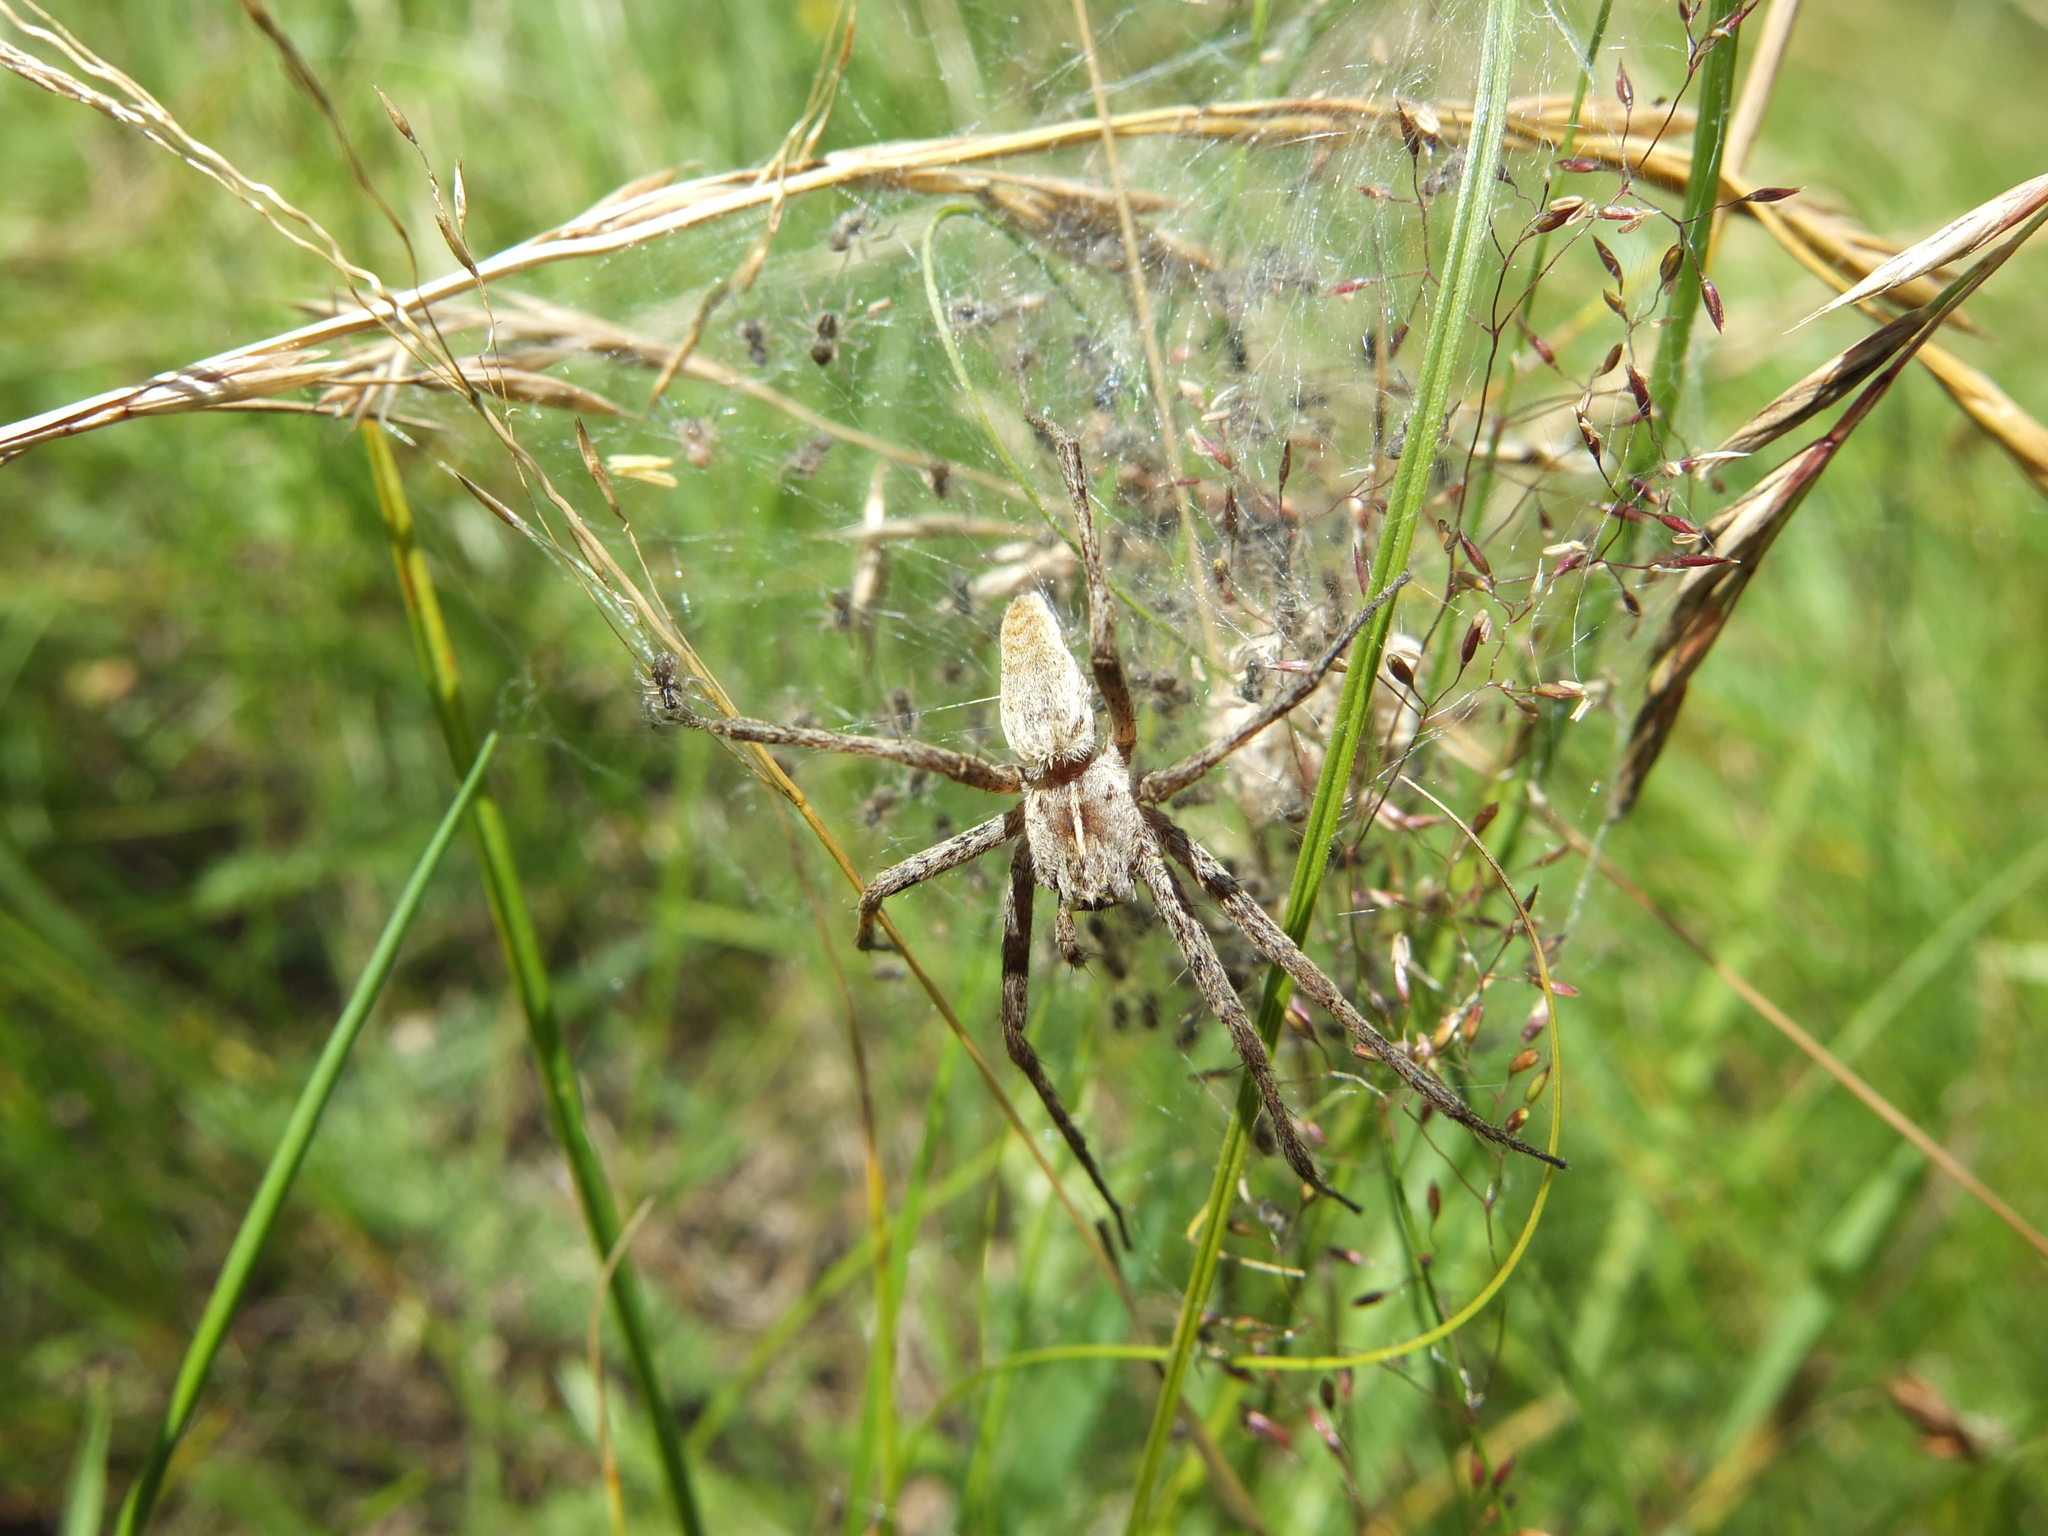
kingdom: Animalia
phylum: Arthropoda
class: Arachnida
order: Araneae
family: Pisauridae
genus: Pisaura
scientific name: Pisaura mirabilis
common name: Tent spider
